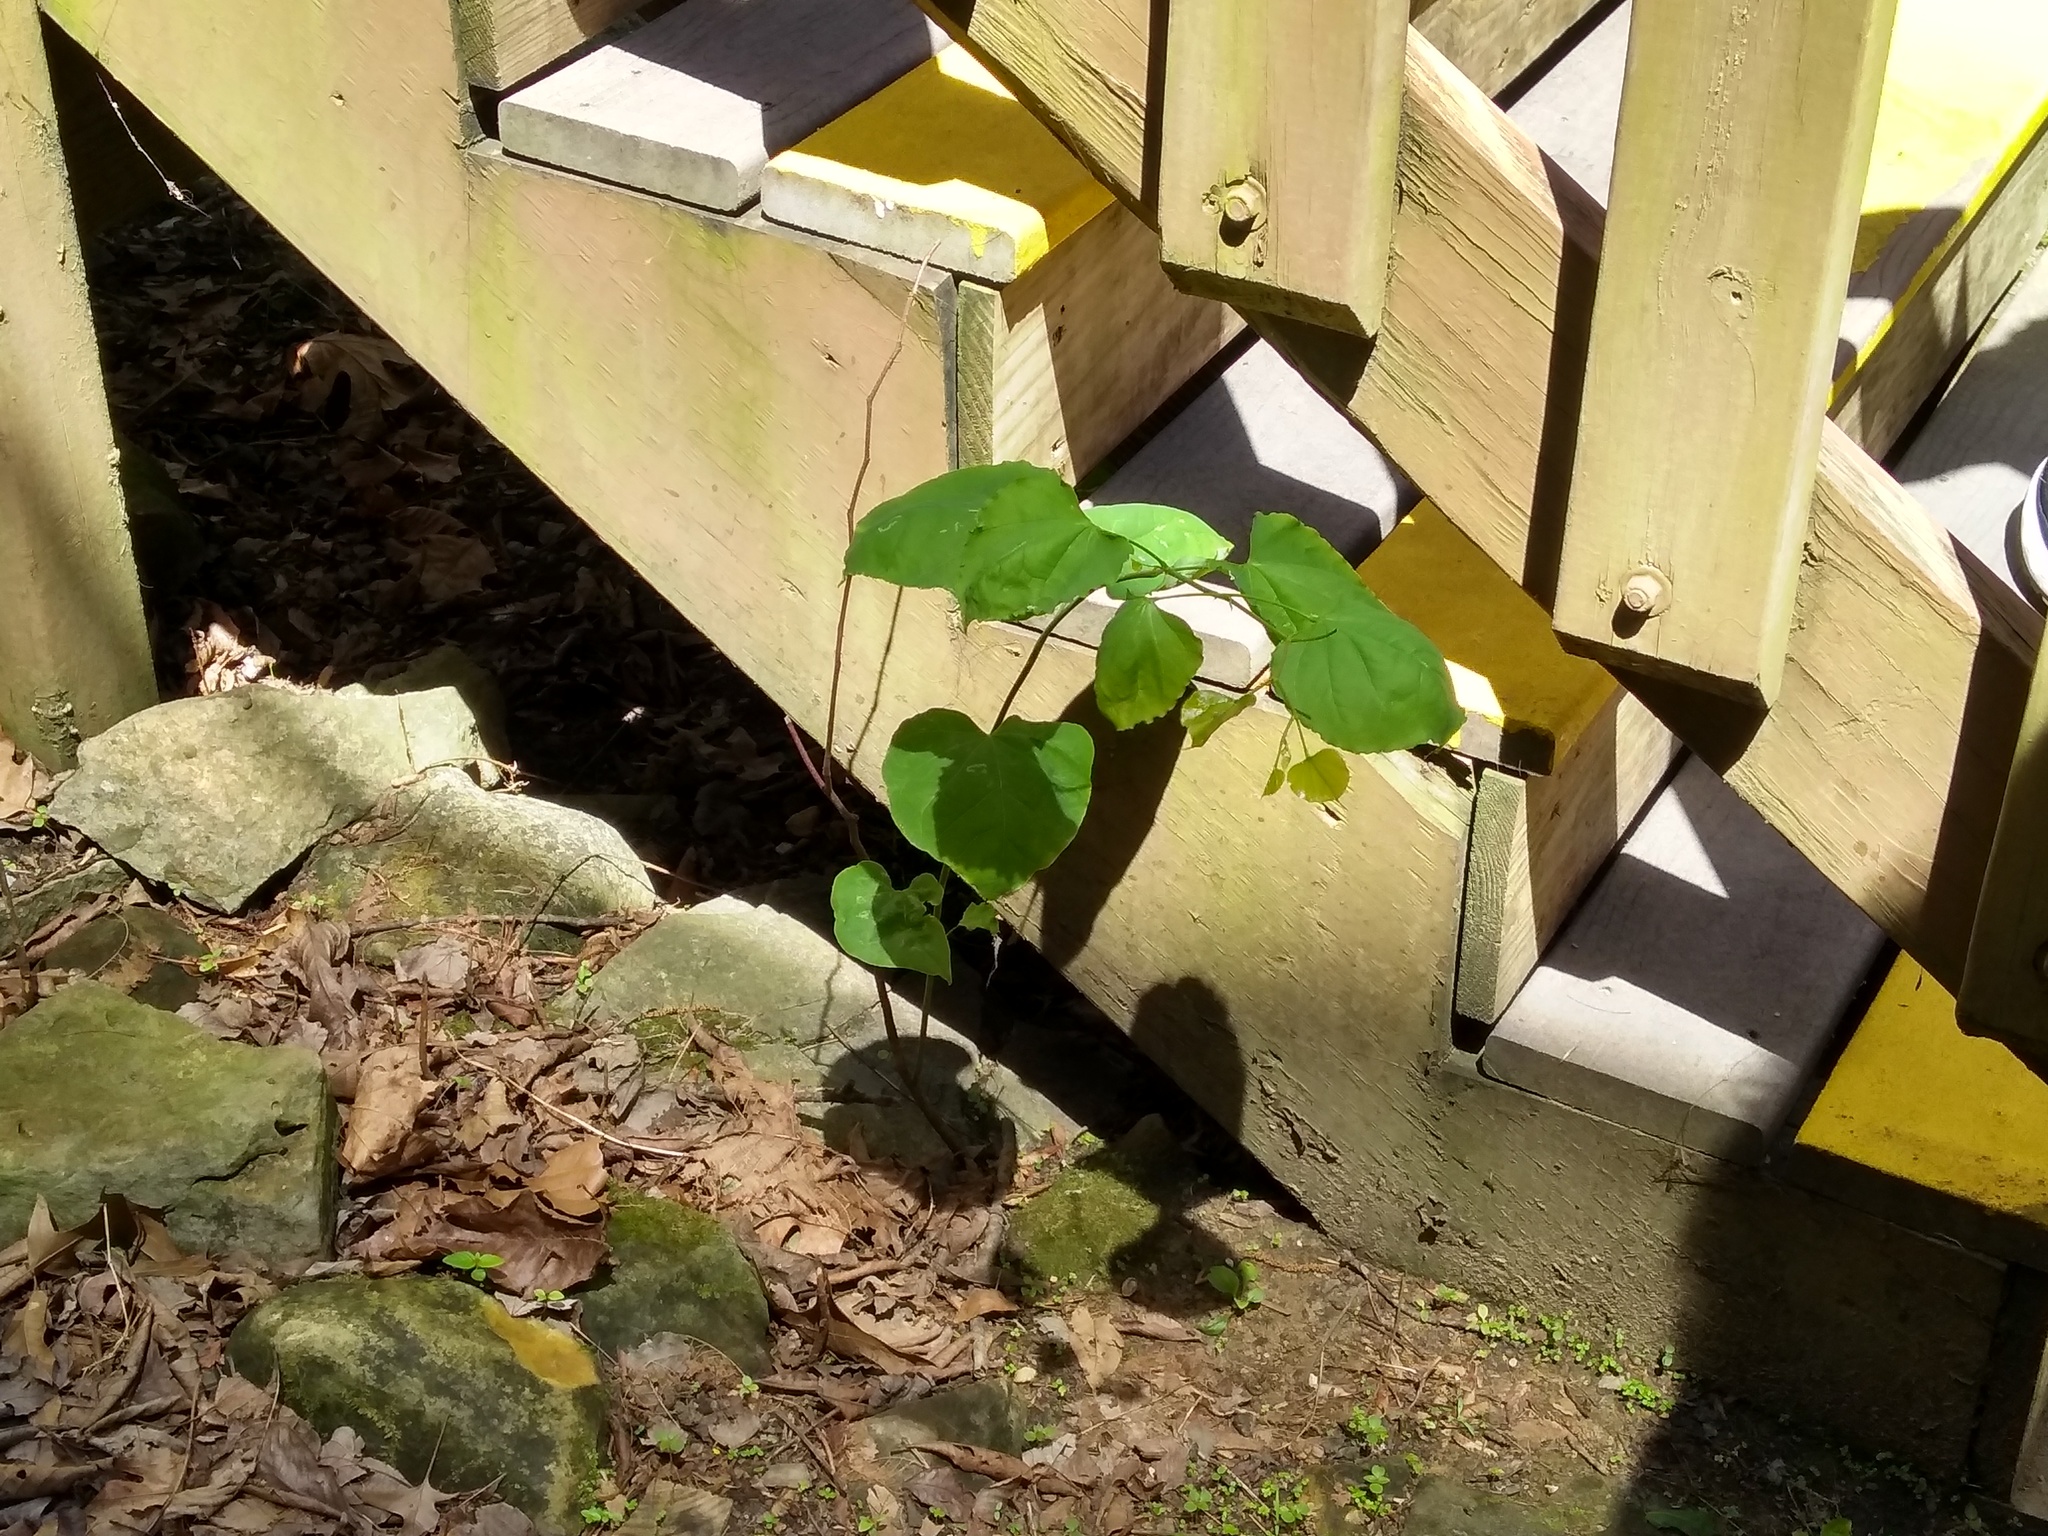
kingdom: Plantae
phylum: Tracheophyta
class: Magnoliopsida
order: Fabales
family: Fabaceae
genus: Cercis
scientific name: Cercis canadensis
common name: Eastern redbud
